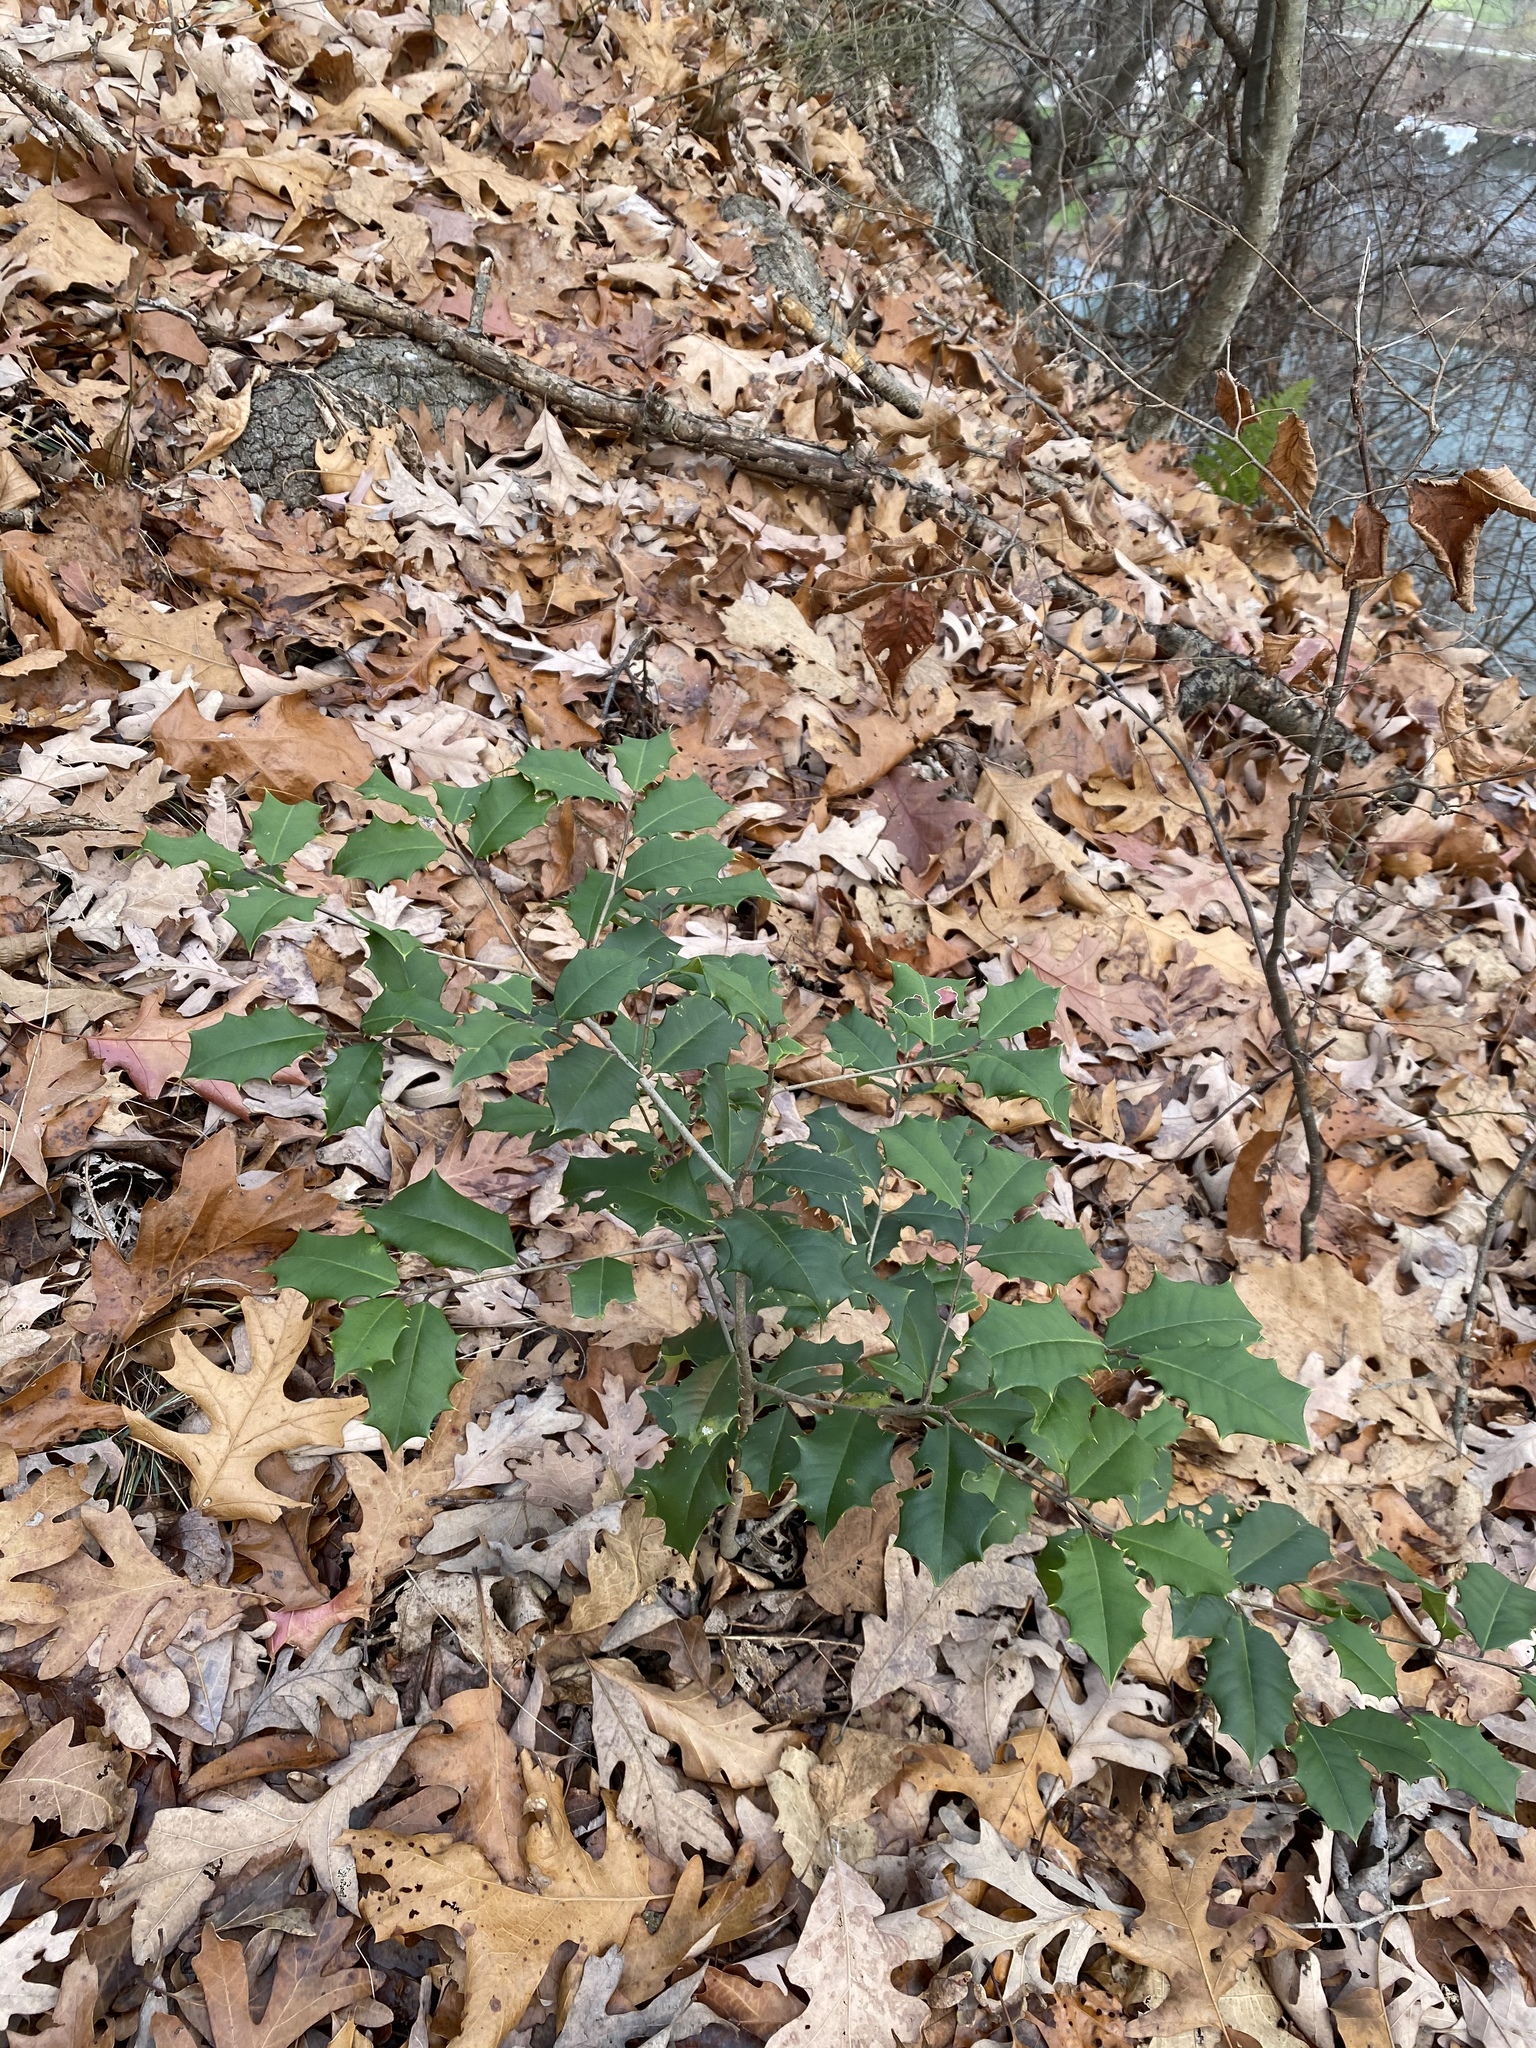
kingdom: Plantae
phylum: Tracheophyta
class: Magnoliopsida
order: Aquifoliales
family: Aquifoliaceae
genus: Ilex
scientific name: Ilex opaca
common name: American holly
